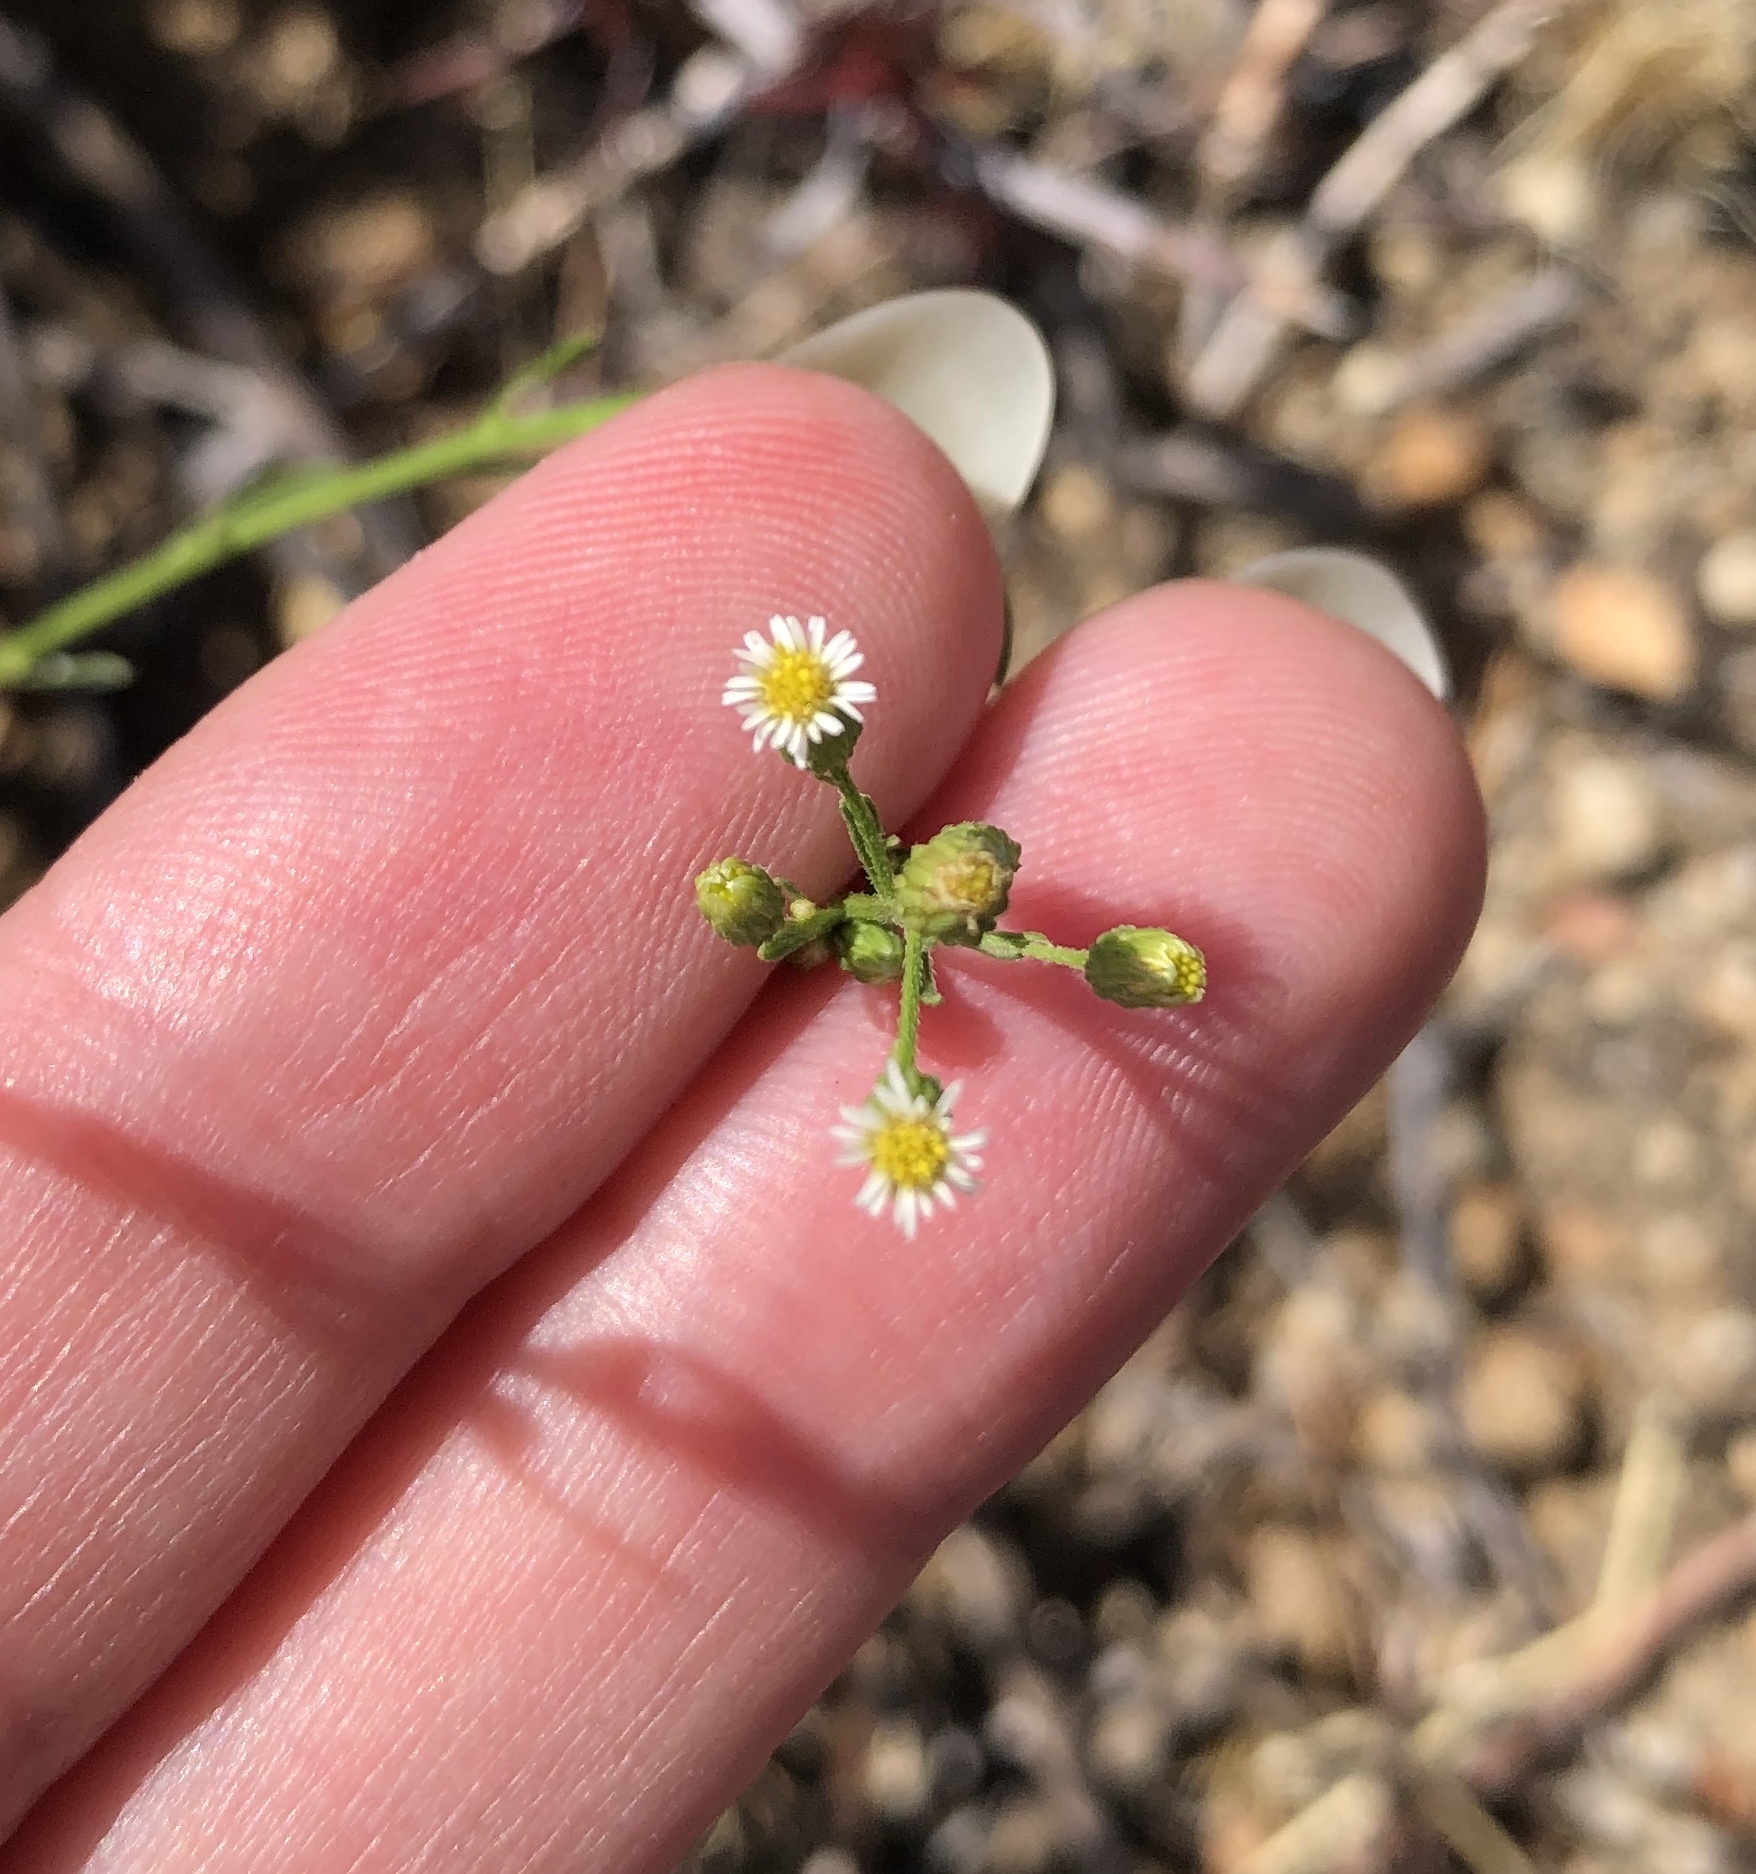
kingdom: Plantae
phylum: Tracheophyta
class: Magnoliopsida
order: Asterales
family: Asteraceae
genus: Erigeron
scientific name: Erigeron canadensis
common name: Canadian fleabane
